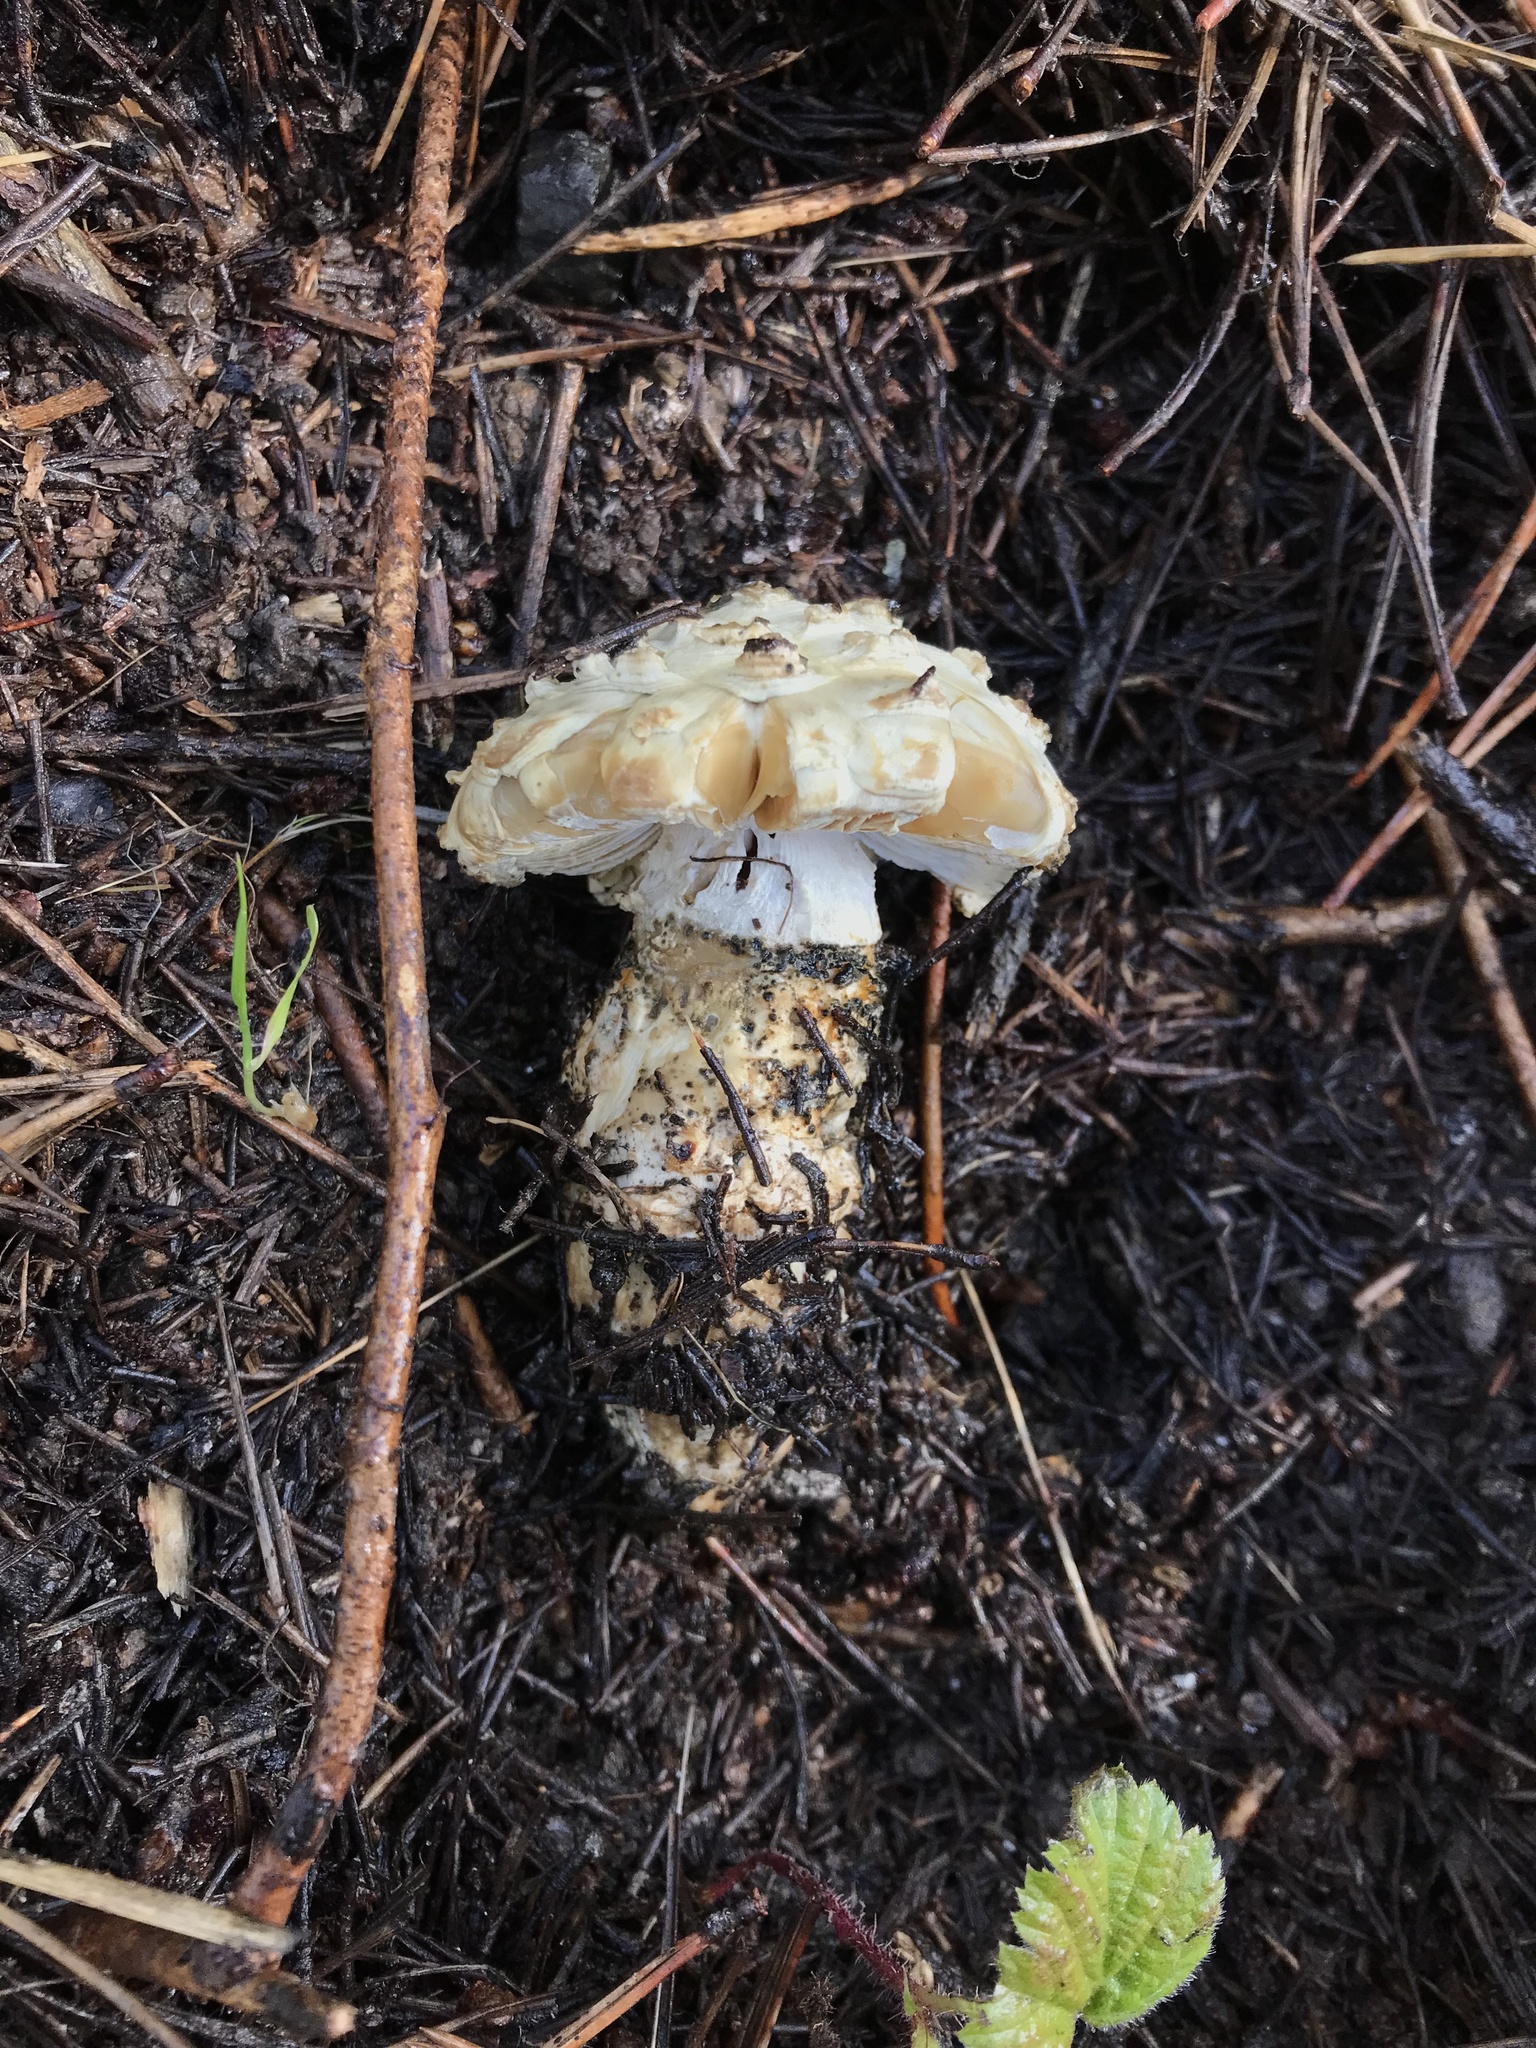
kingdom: Fungi
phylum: Basidiomycota
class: Agaricomycetes
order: Agaricales
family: Amanitaceae
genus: Amanita
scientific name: Amanita magniverrucata
